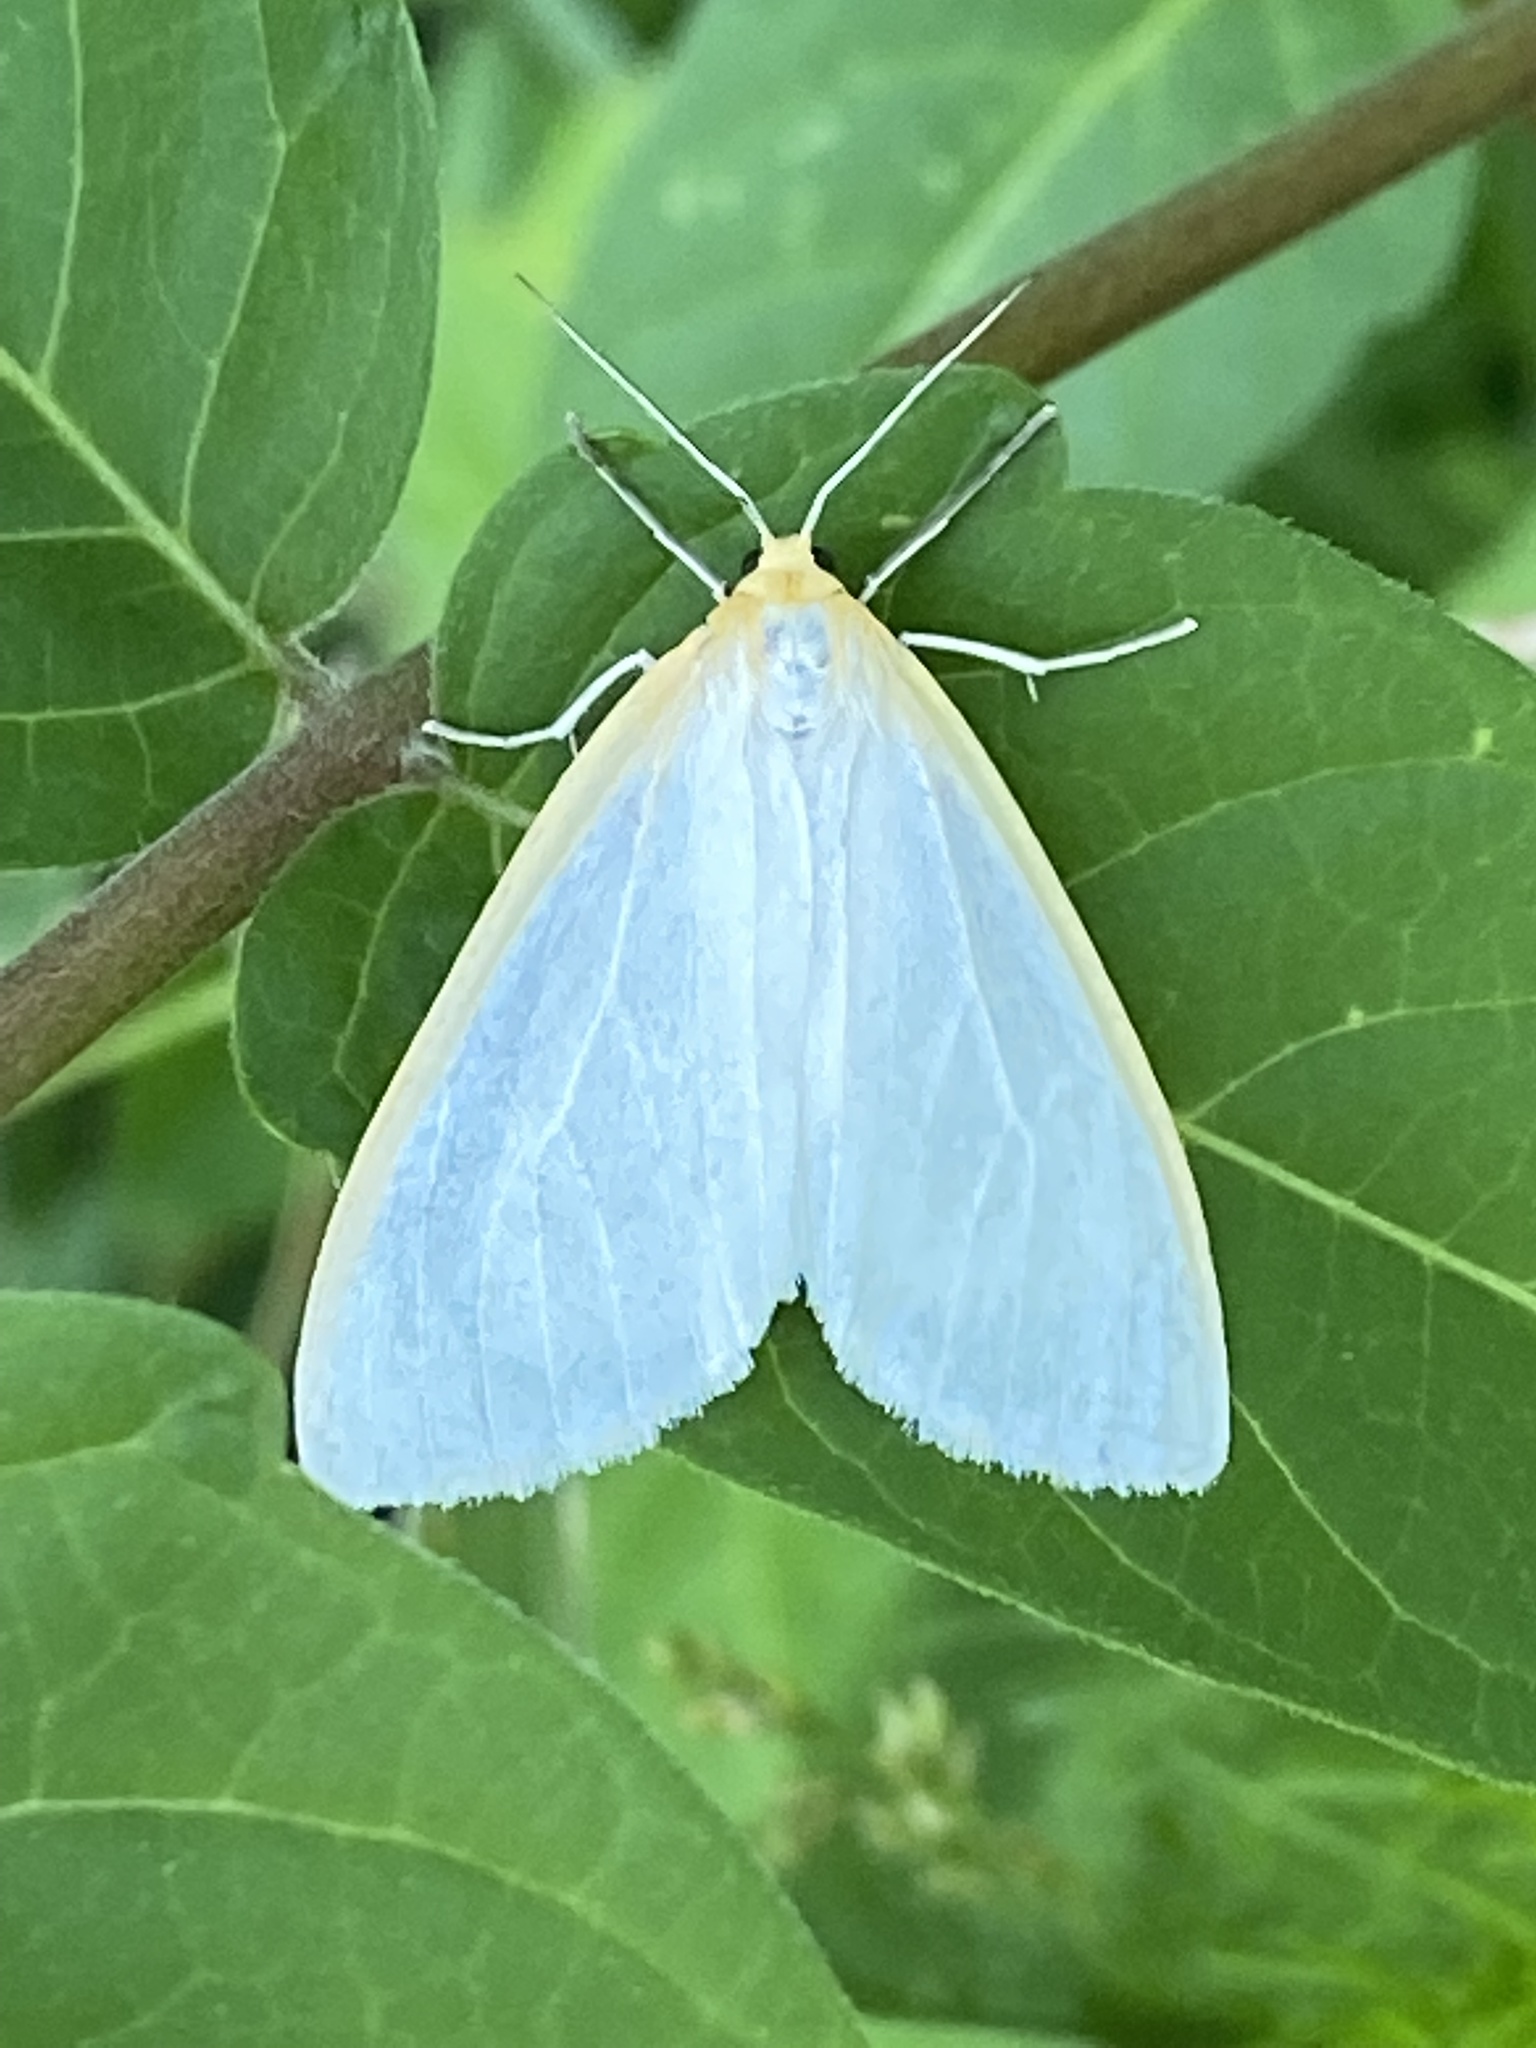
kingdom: Animalia
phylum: Arthropoda
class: Insecta
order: Lepidoptera
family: Erebidae
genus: Cycnia
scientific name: Cycnia tenera
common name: Delicate cycnia moth
